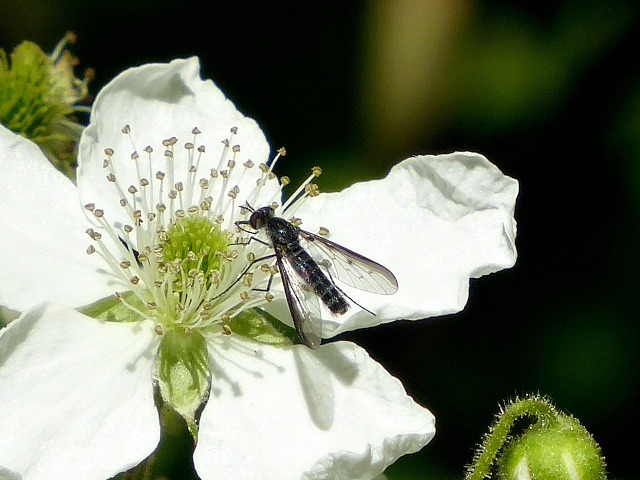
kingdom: Animalia
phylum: Arthropoda
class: Insecta
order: Diptera
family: Bombyliidae
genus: Thevenetimyia
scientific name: Thevenetimyia funestus
